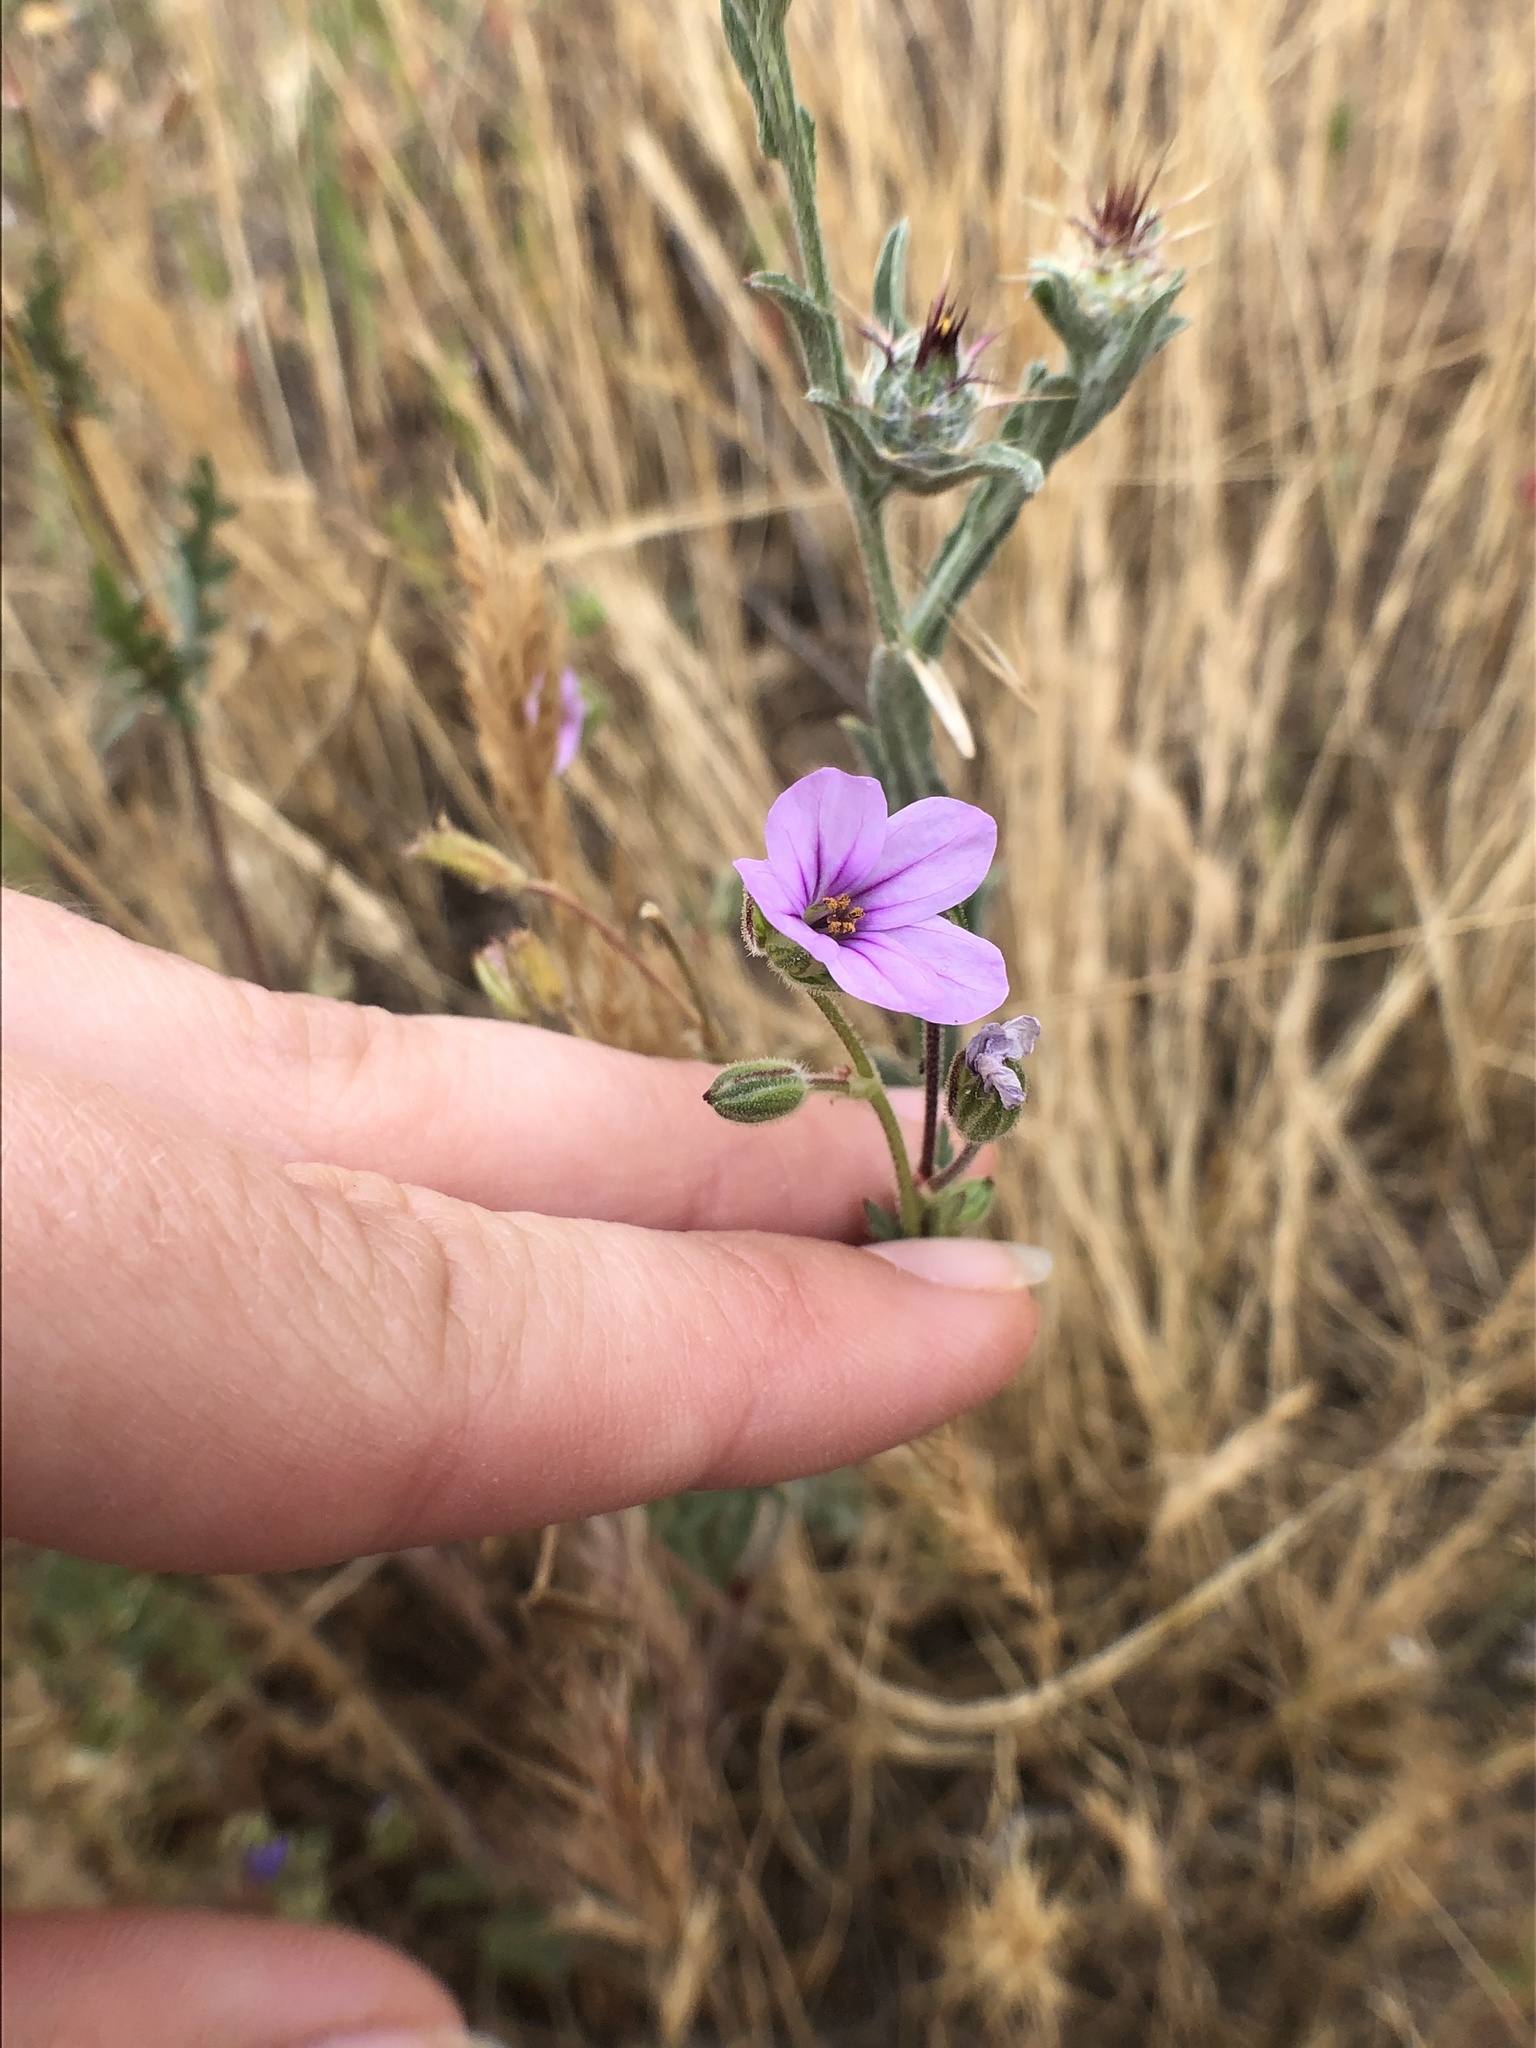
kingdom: Plantae
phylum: Tracheophyta
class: Magnoliopsida
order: Geraniales
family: Geraniaceae
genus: Erodium
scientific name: Erodium botrys
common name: Mediterranean stork's-bill
